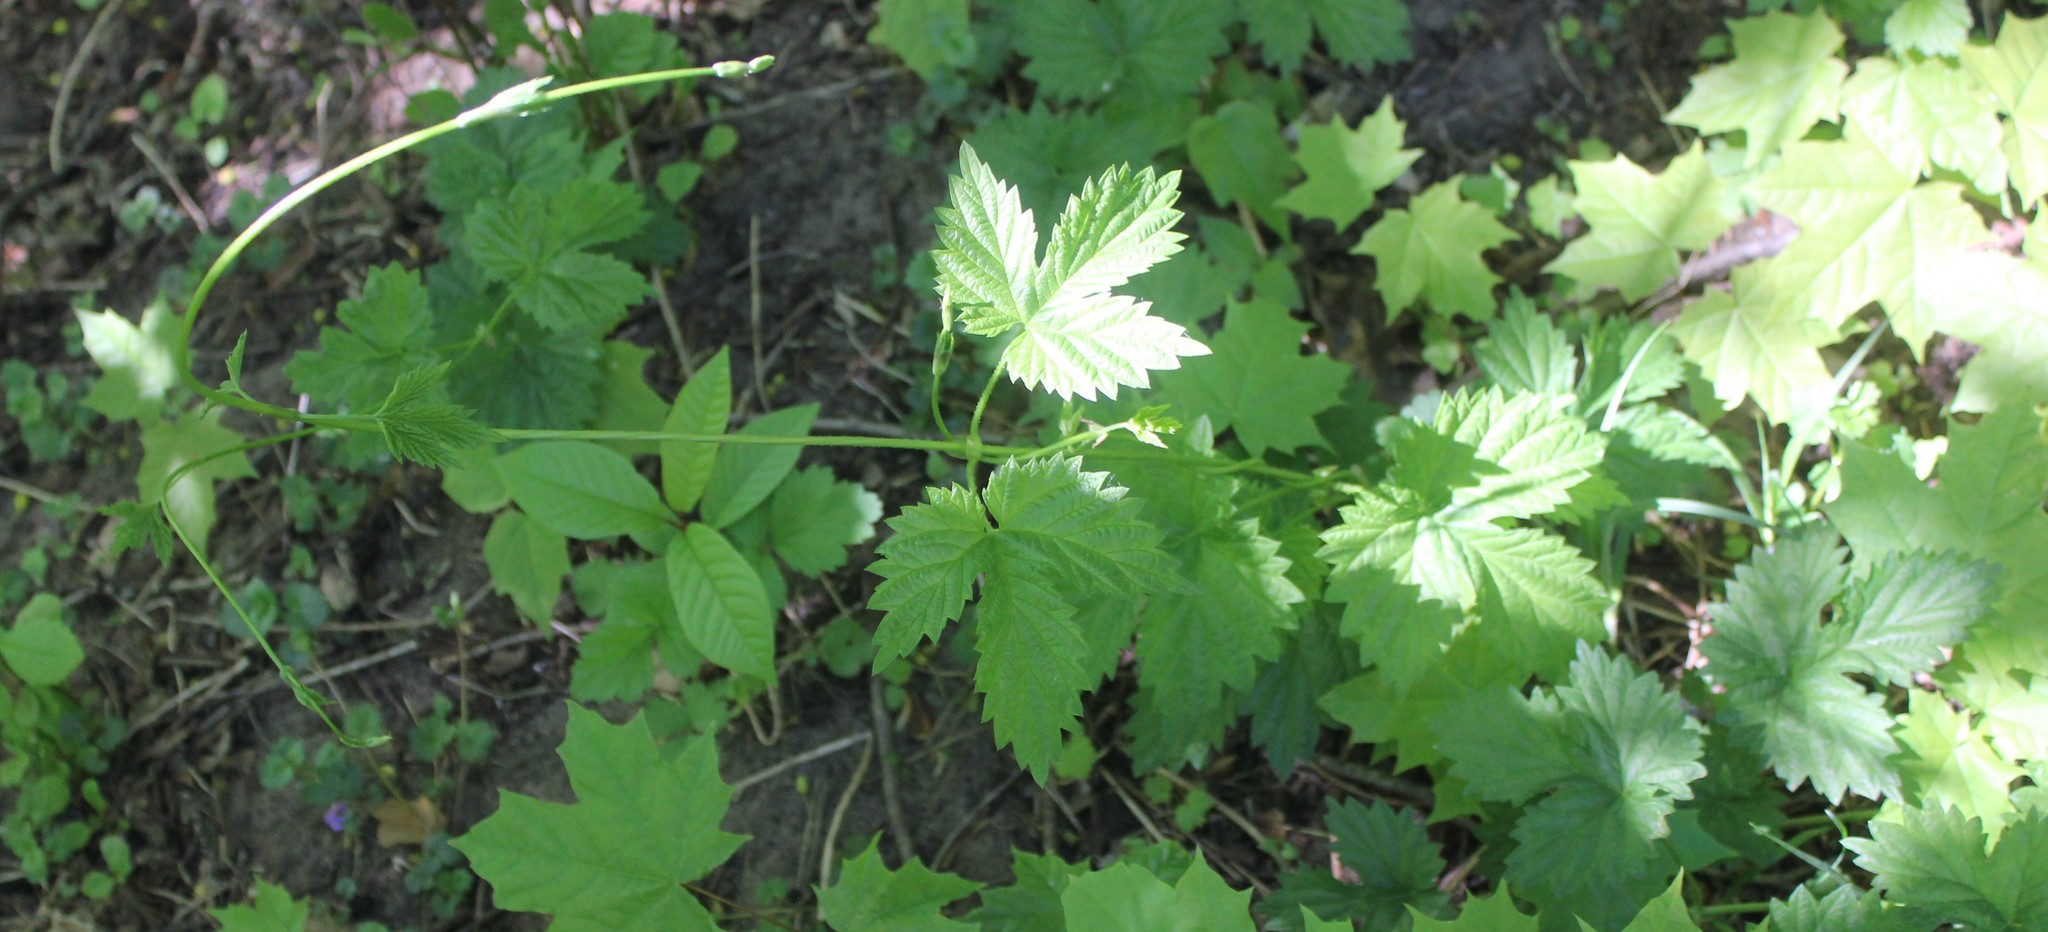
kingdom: Plantae
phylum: Tracheophyta
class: Magnoliopsida
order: Rosales
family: Cannabaceae
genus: Humulus
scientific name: Humulus lupulus
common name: Hop
